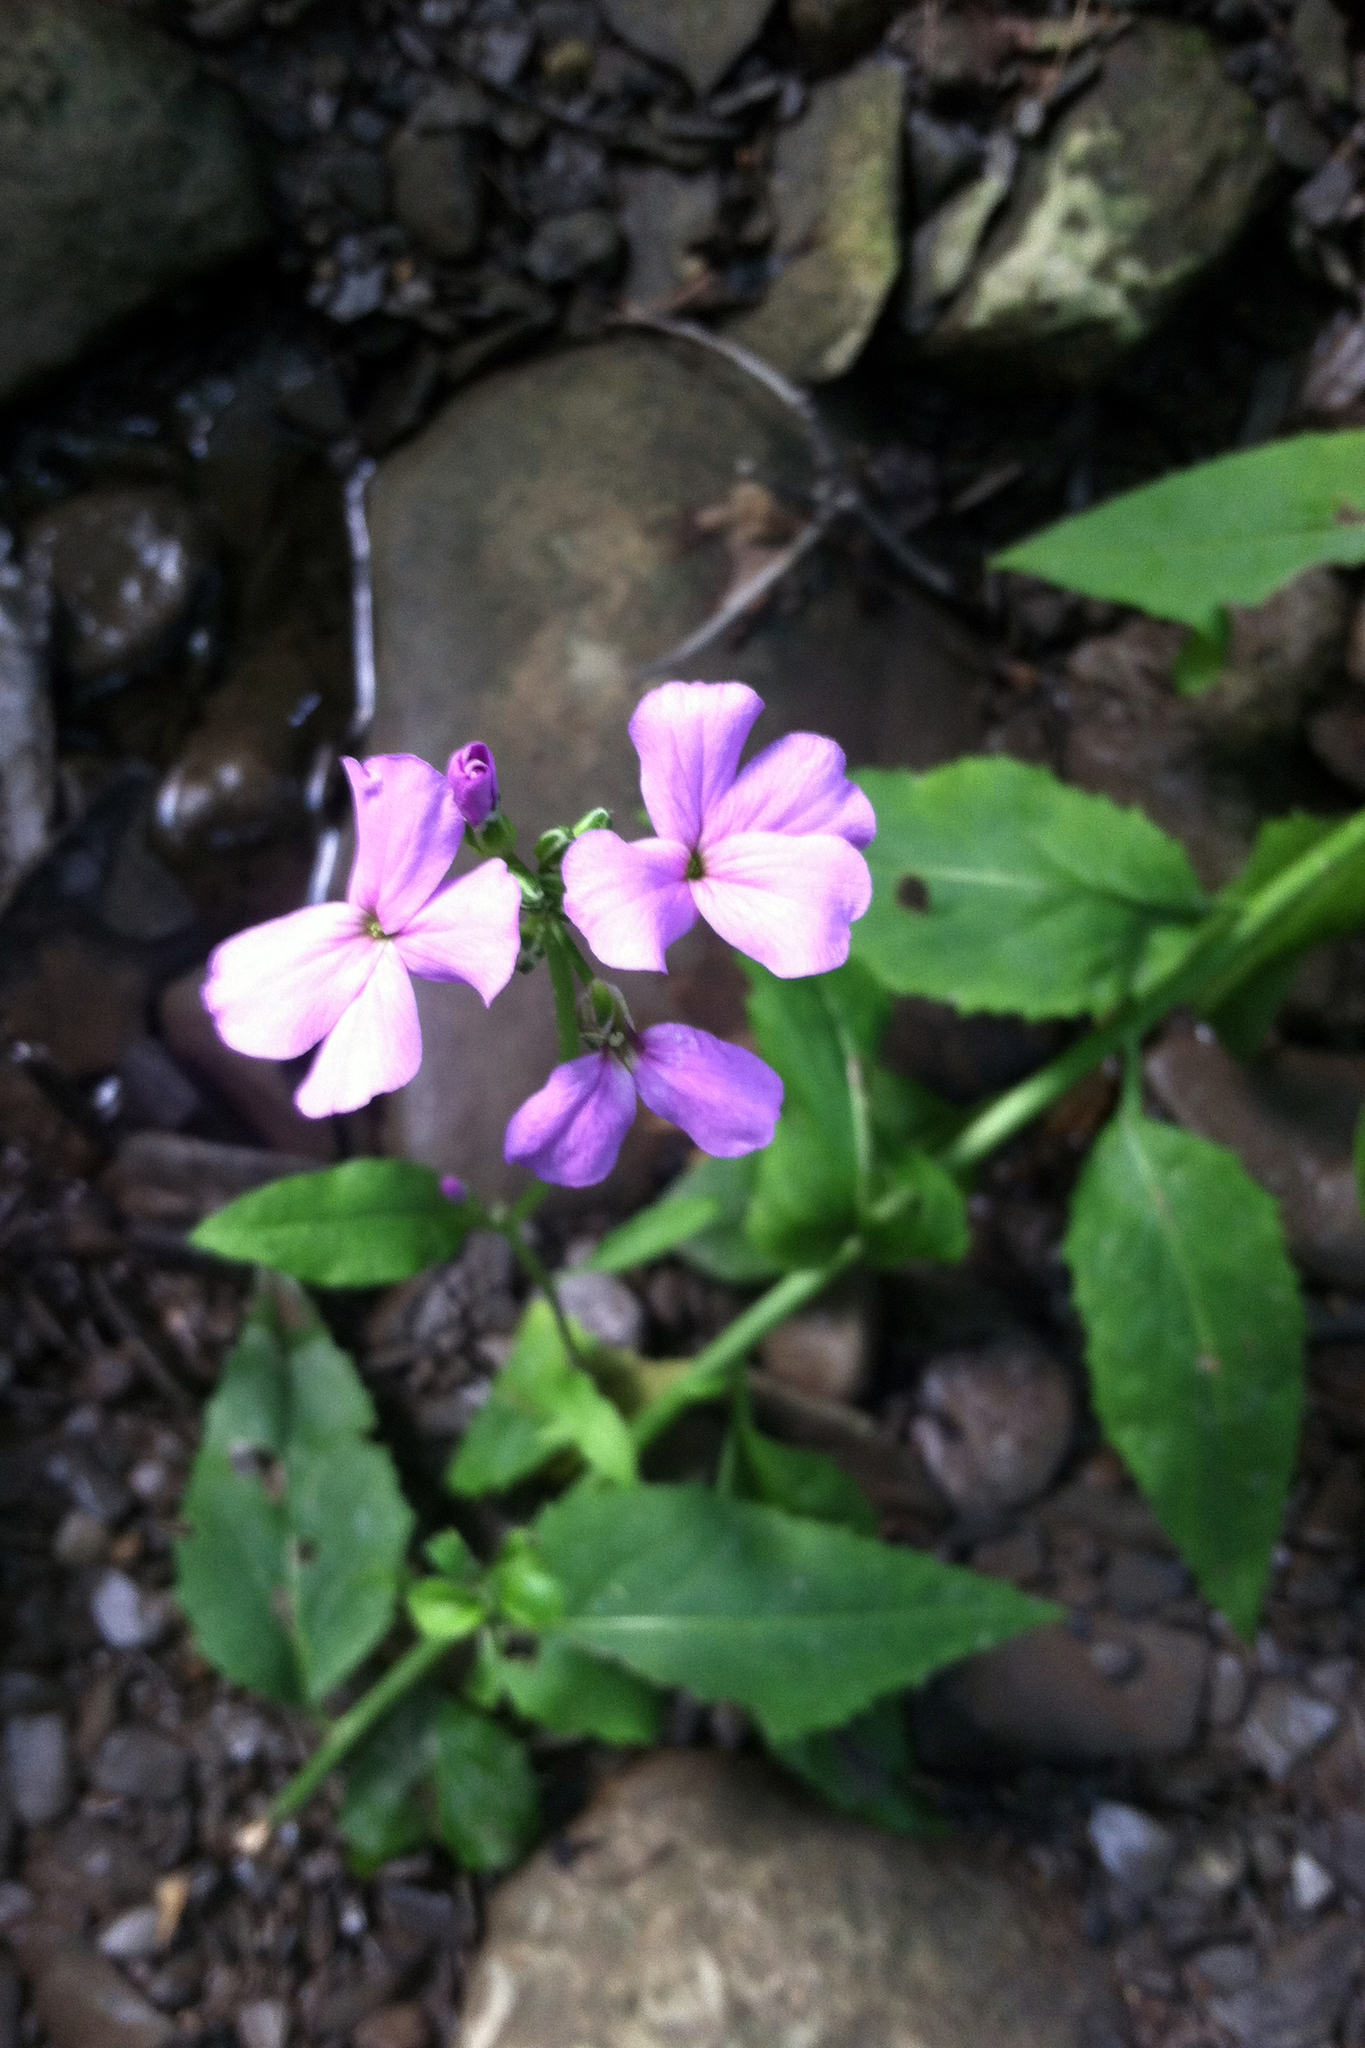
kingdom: Plantae
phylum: Tracheophyta
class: Magnoliopsida
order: Brassicales
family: Brassicaceae
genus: Hesperis
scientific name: Hesperis matronalis
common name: Dame's-violet
